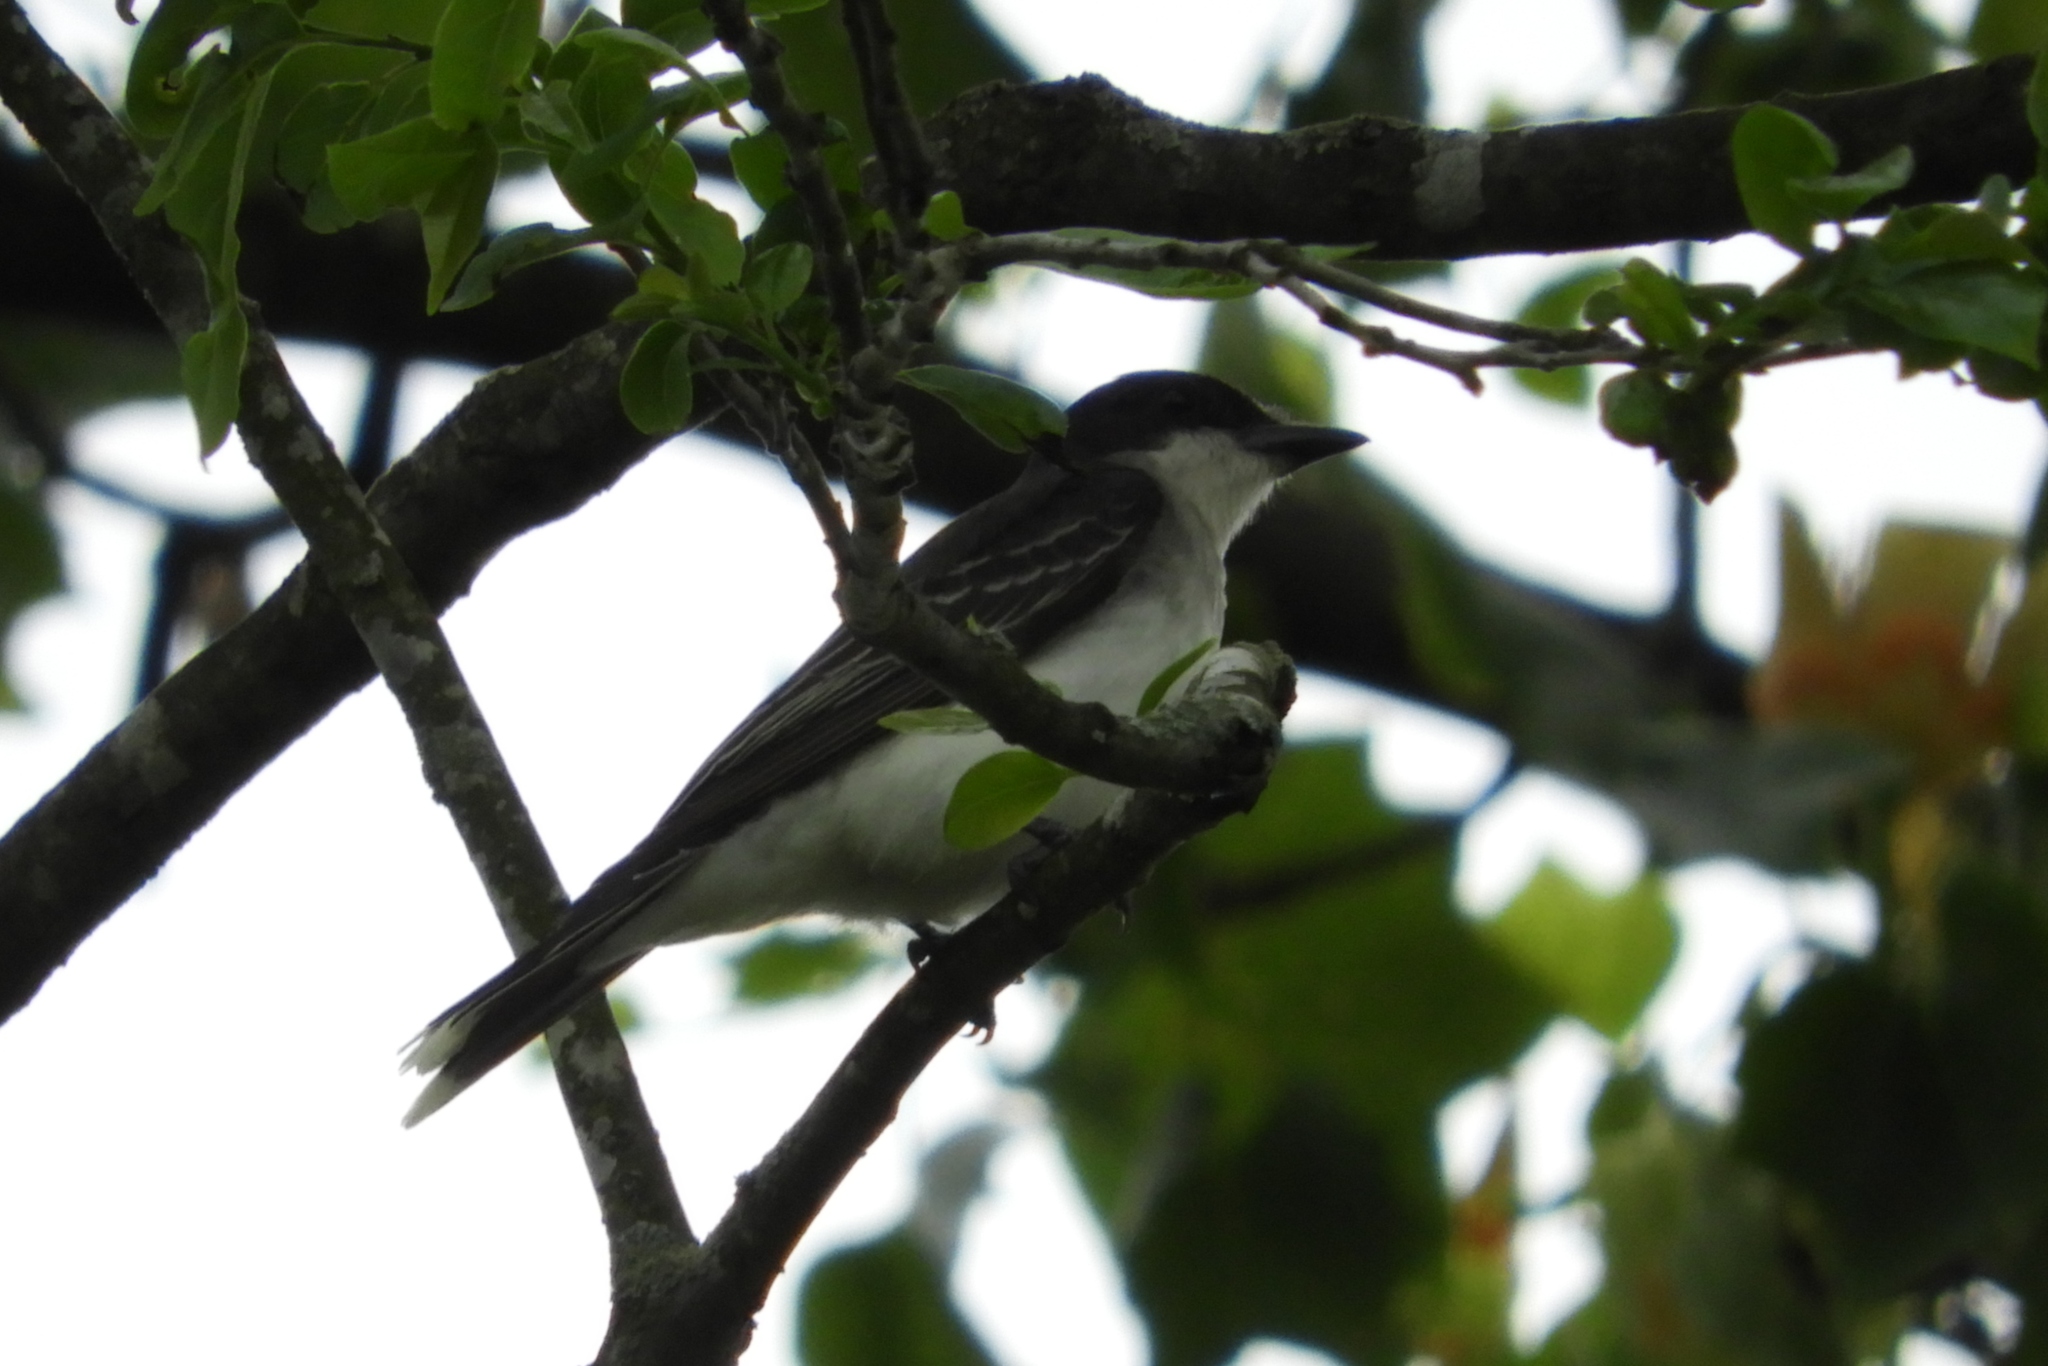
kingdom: Animalia
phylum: Chordata
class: Aves
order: Passeriformes
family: Tyrannidae
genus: Tyrannus
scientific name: Tyrannus tyrannus
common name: Eastern kingbird
